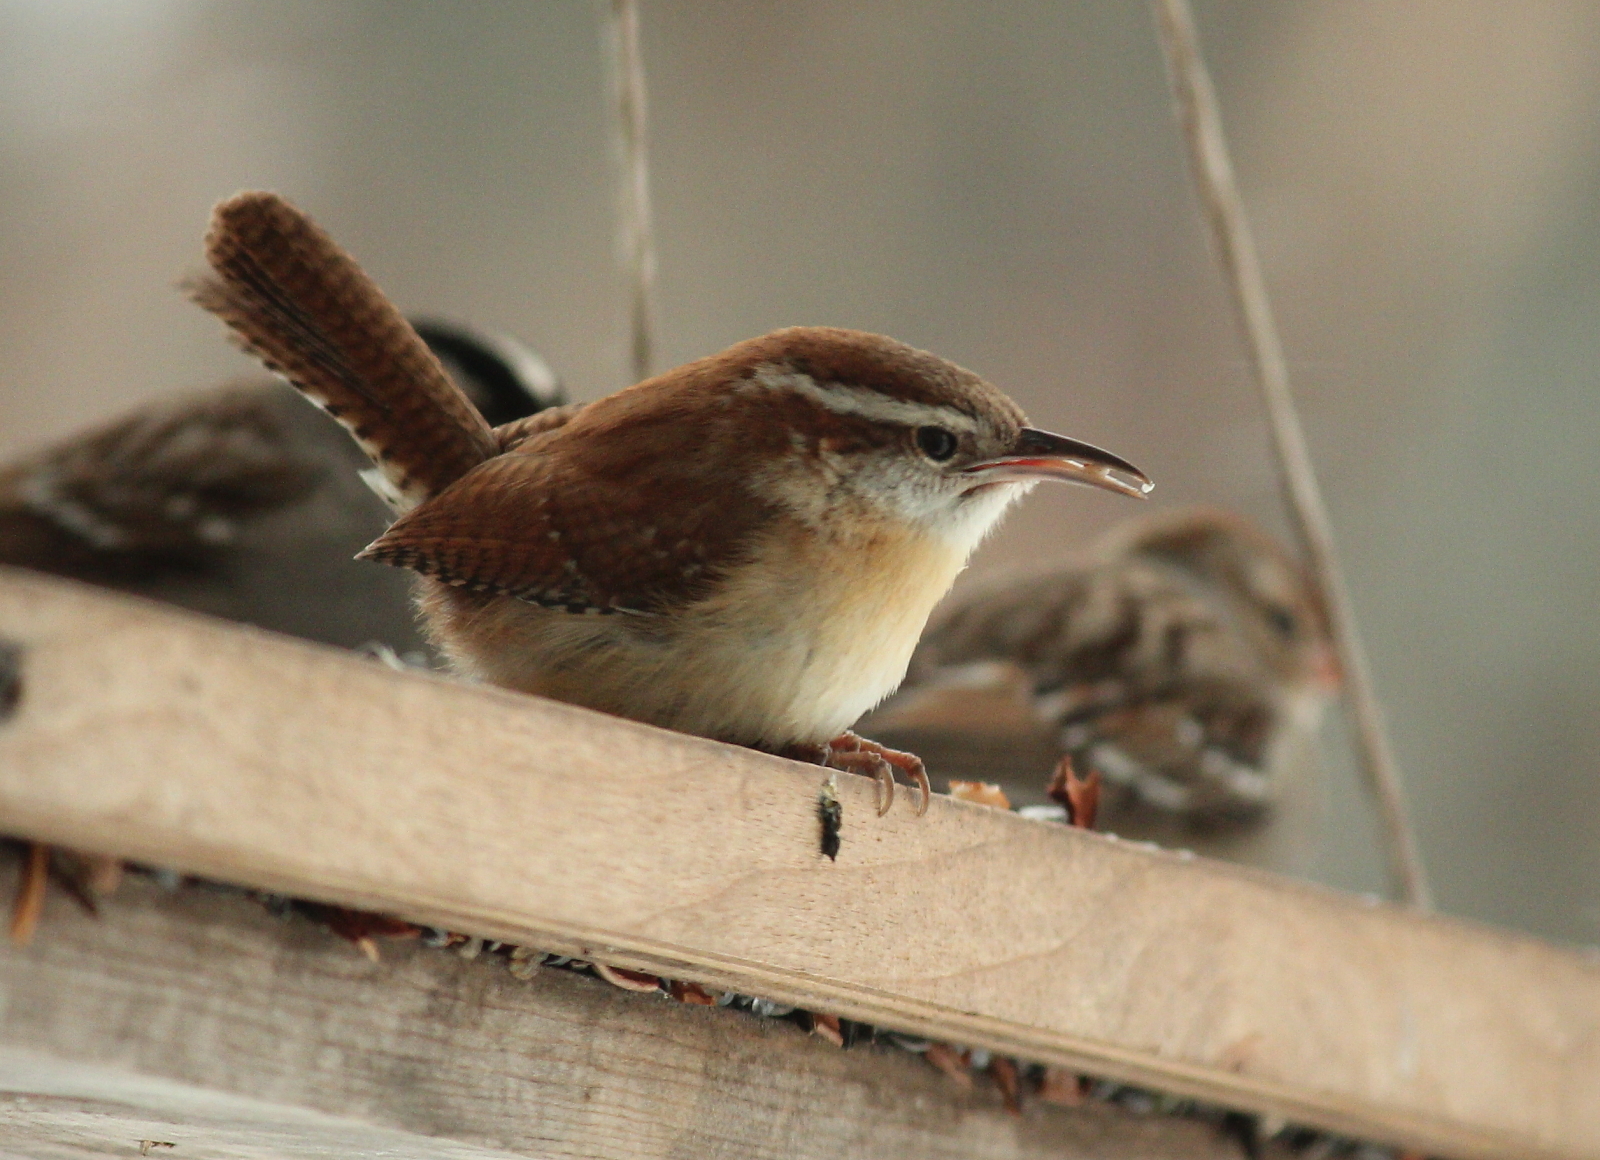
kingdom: Animalia
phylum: Chordata
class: Aves
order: Passeriformes
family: Troglodytidae
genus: Thryothorus
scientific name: Thryothorus ludovicianus
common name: Carolina wren
